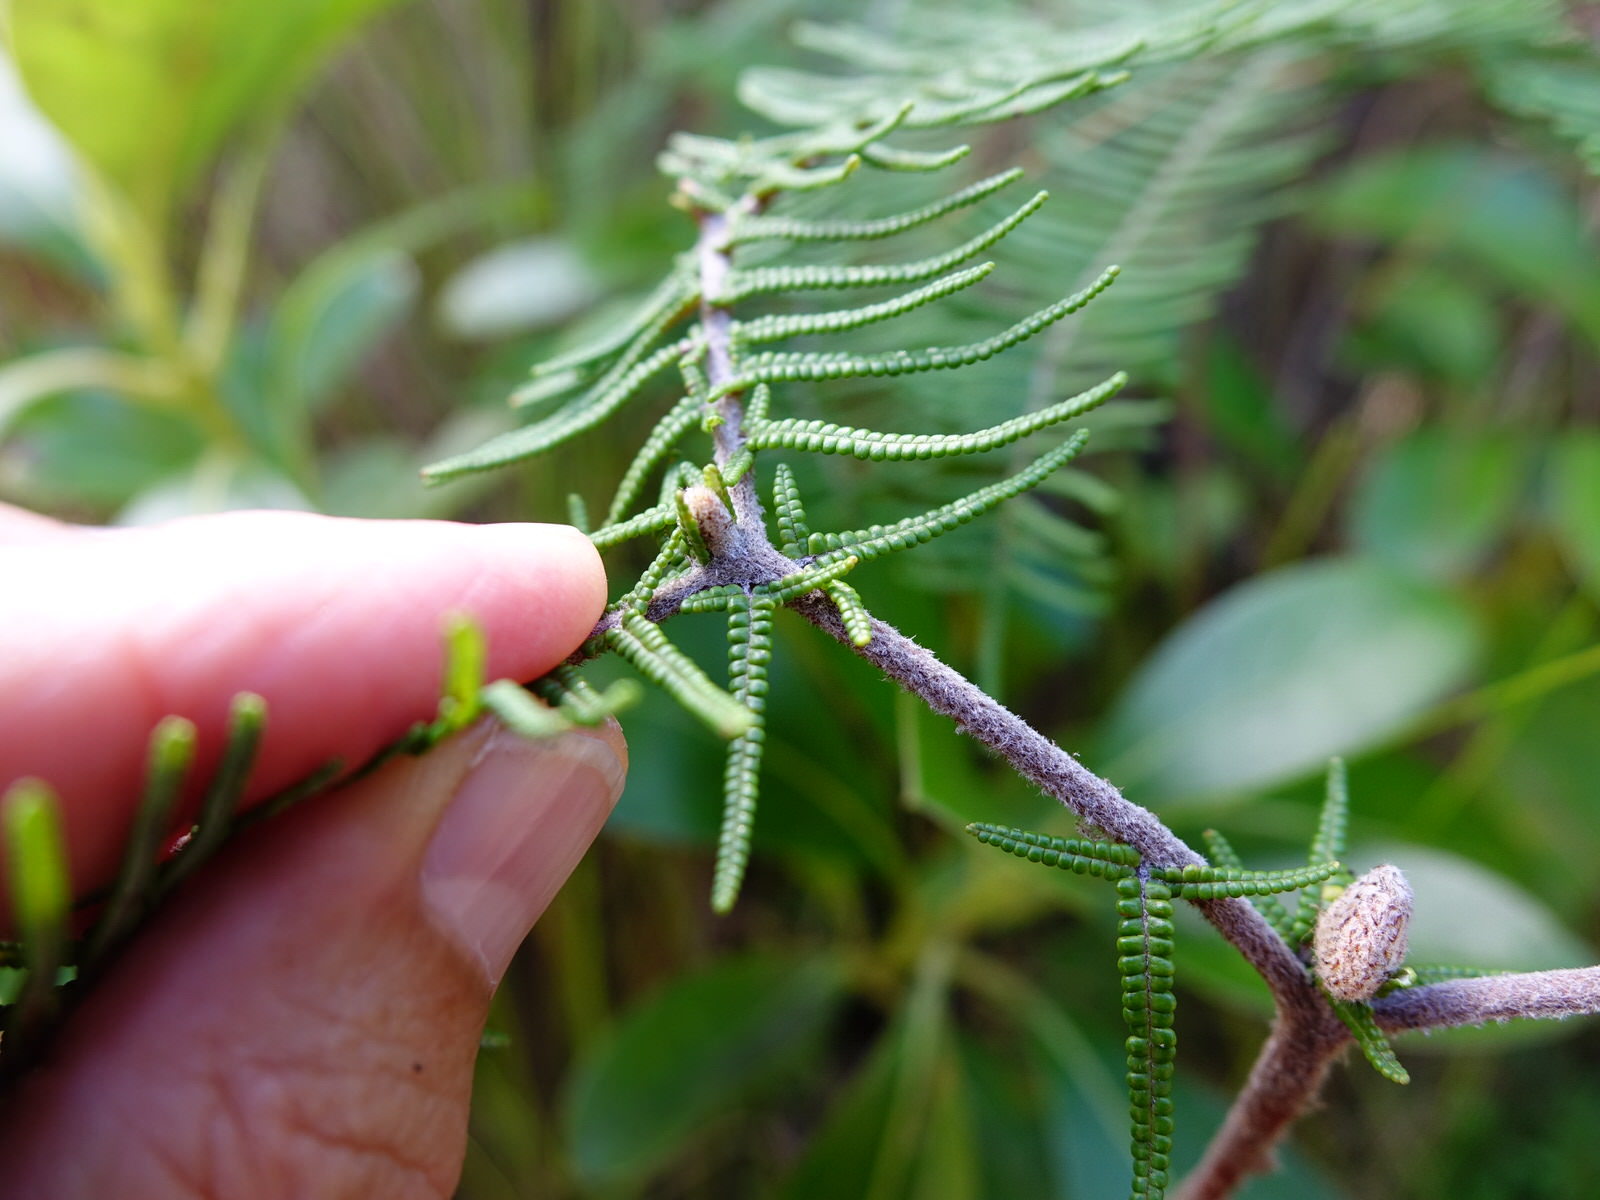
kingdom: Plantae
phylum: Tracheophyta
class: Polypodiopsida
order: Gleicheniales
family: Gleicheniaceae
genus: Gleichenia
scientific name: Gleichenia dicarpa
